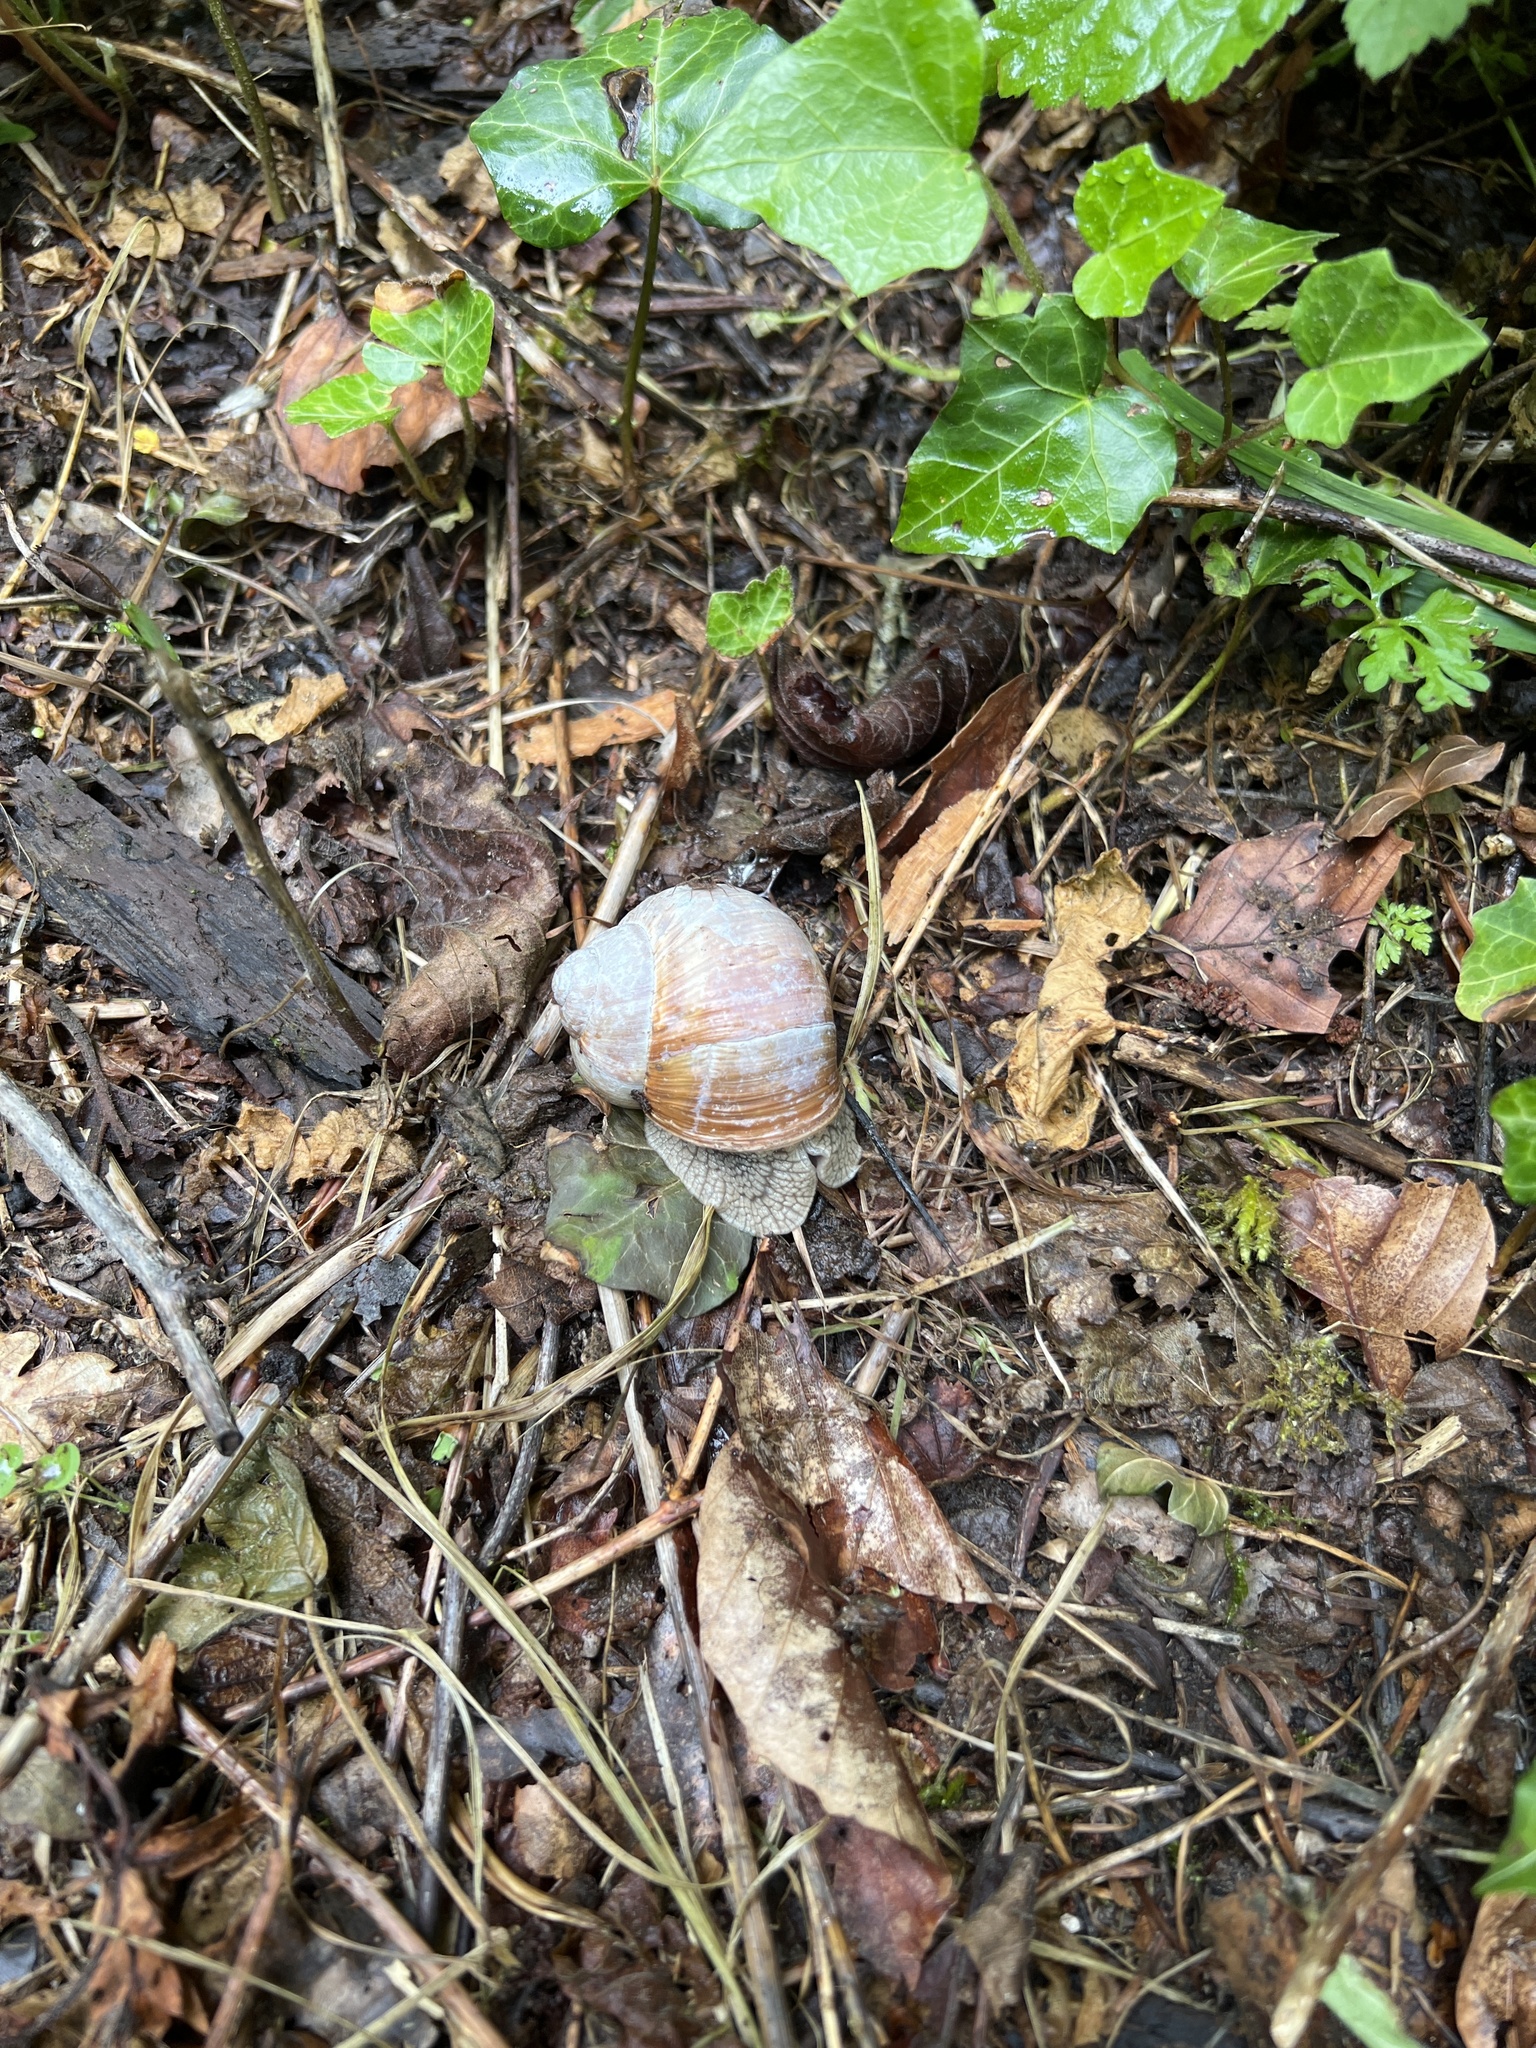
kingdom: Animalia
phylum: Mollusca
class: Gastropoda
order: Stylommatophora
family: Helicidae
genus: Helix
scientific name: Helix pomatia
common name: Roman snail
